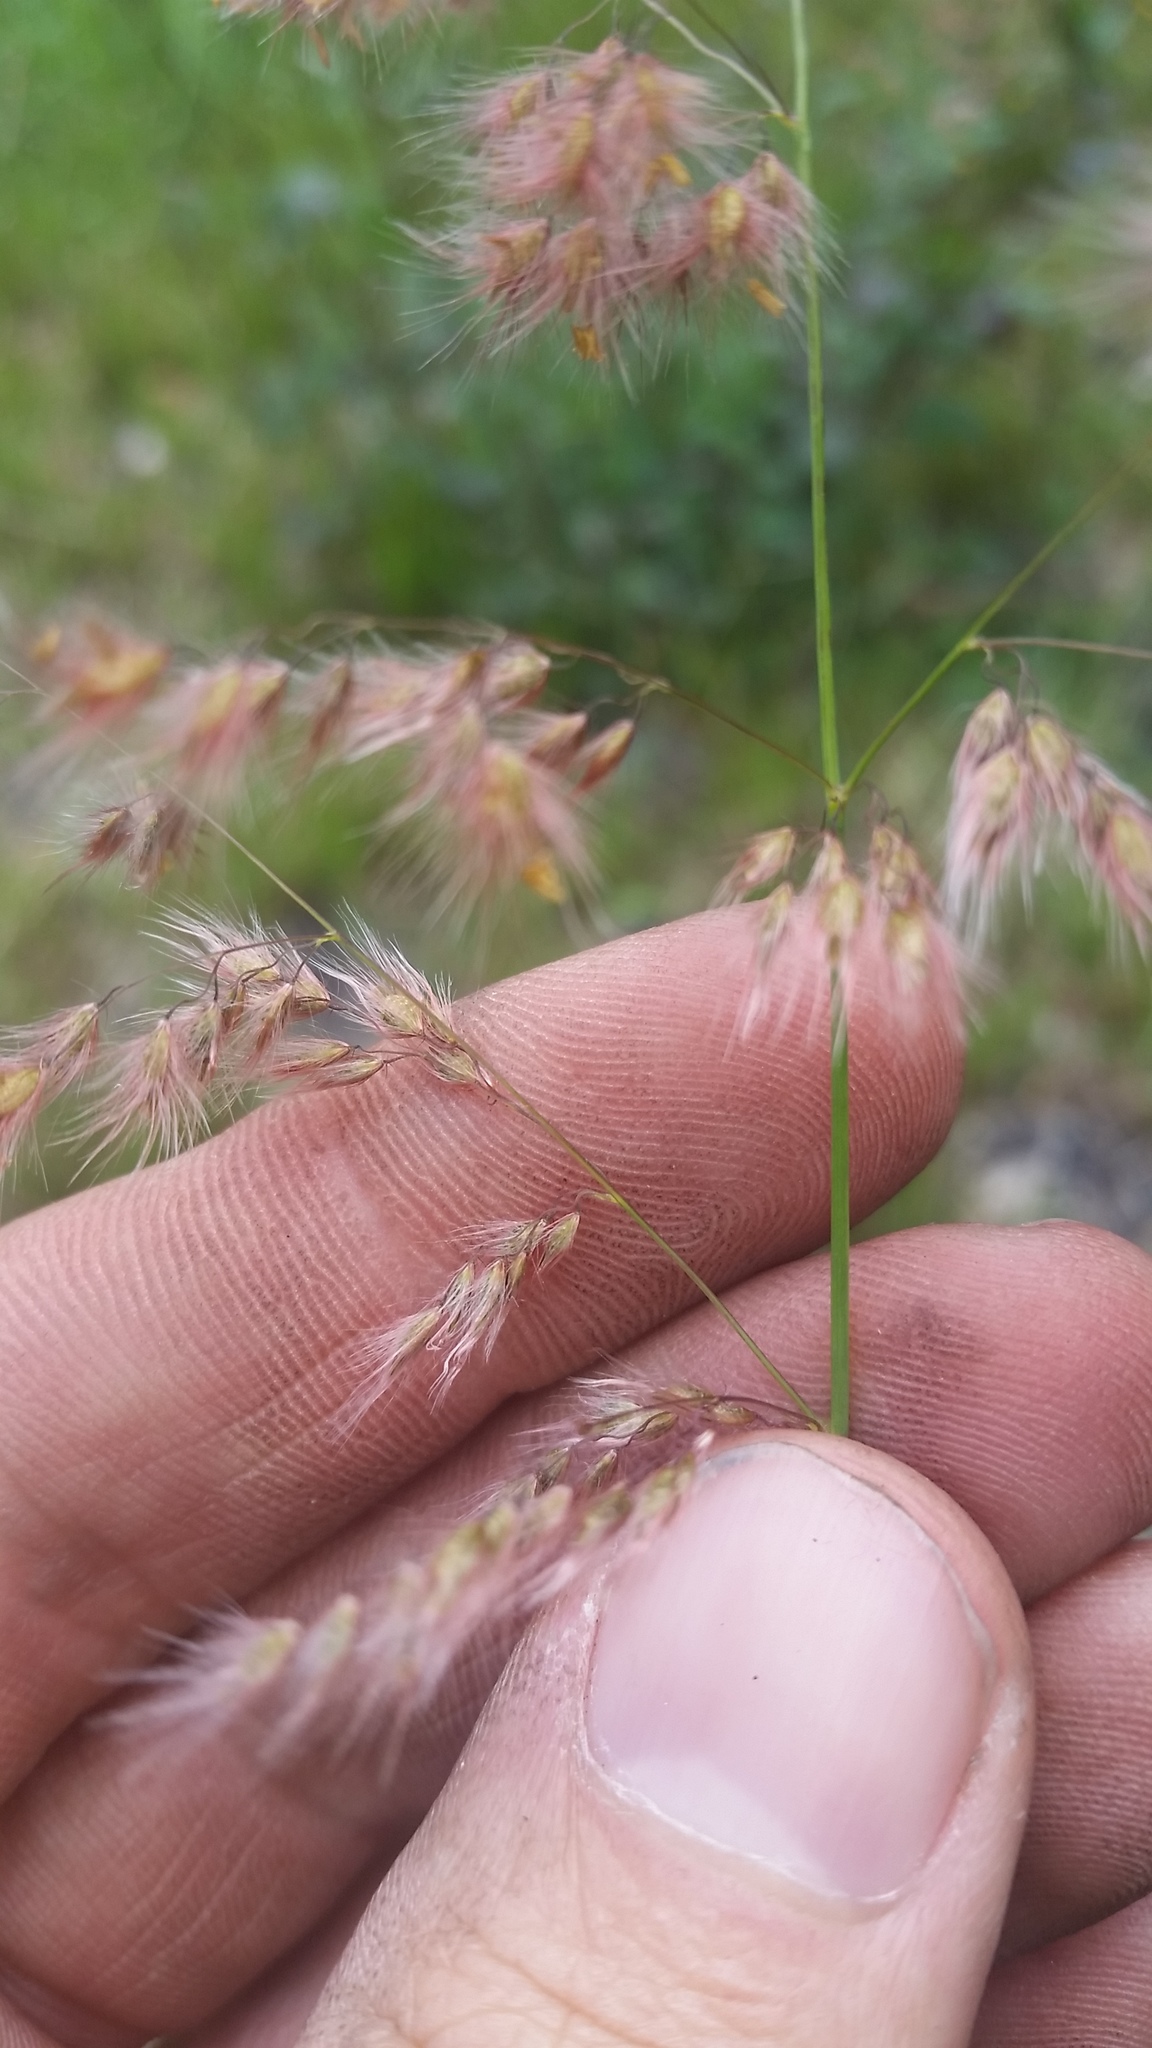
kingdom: Plantae
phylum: Tracheophyta
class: Liliopsida
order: Poales
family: Poaceae
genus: Melinis
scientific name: Melinis repens
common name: Rose natal grass
